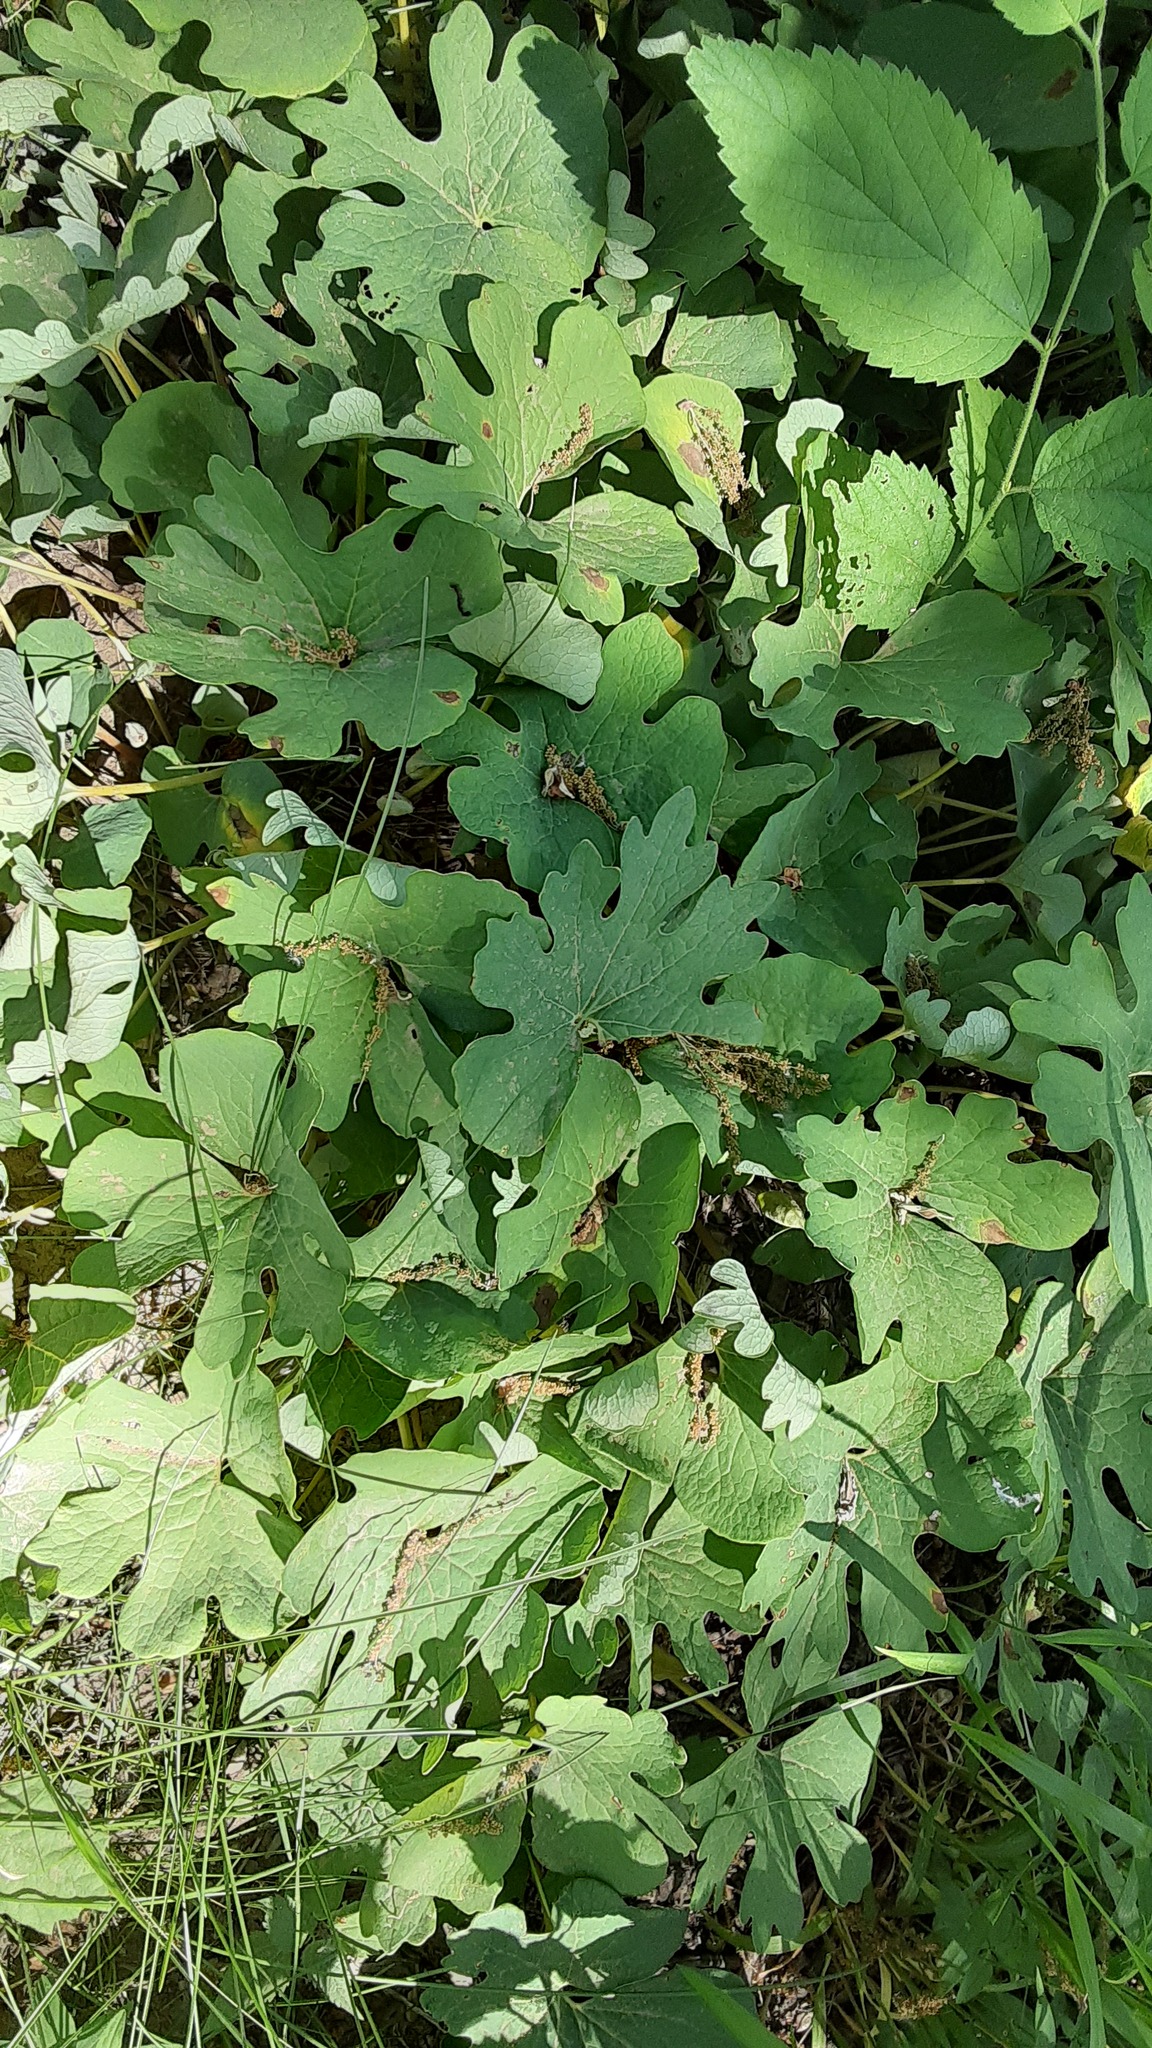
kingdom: Plantae
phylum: Tracheophyta
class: Magnoliopsida
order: Ranunculales
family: Papaveraceae
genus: Sanguinaria
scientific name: Sanguinaria canadensis
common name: Bloodroot
